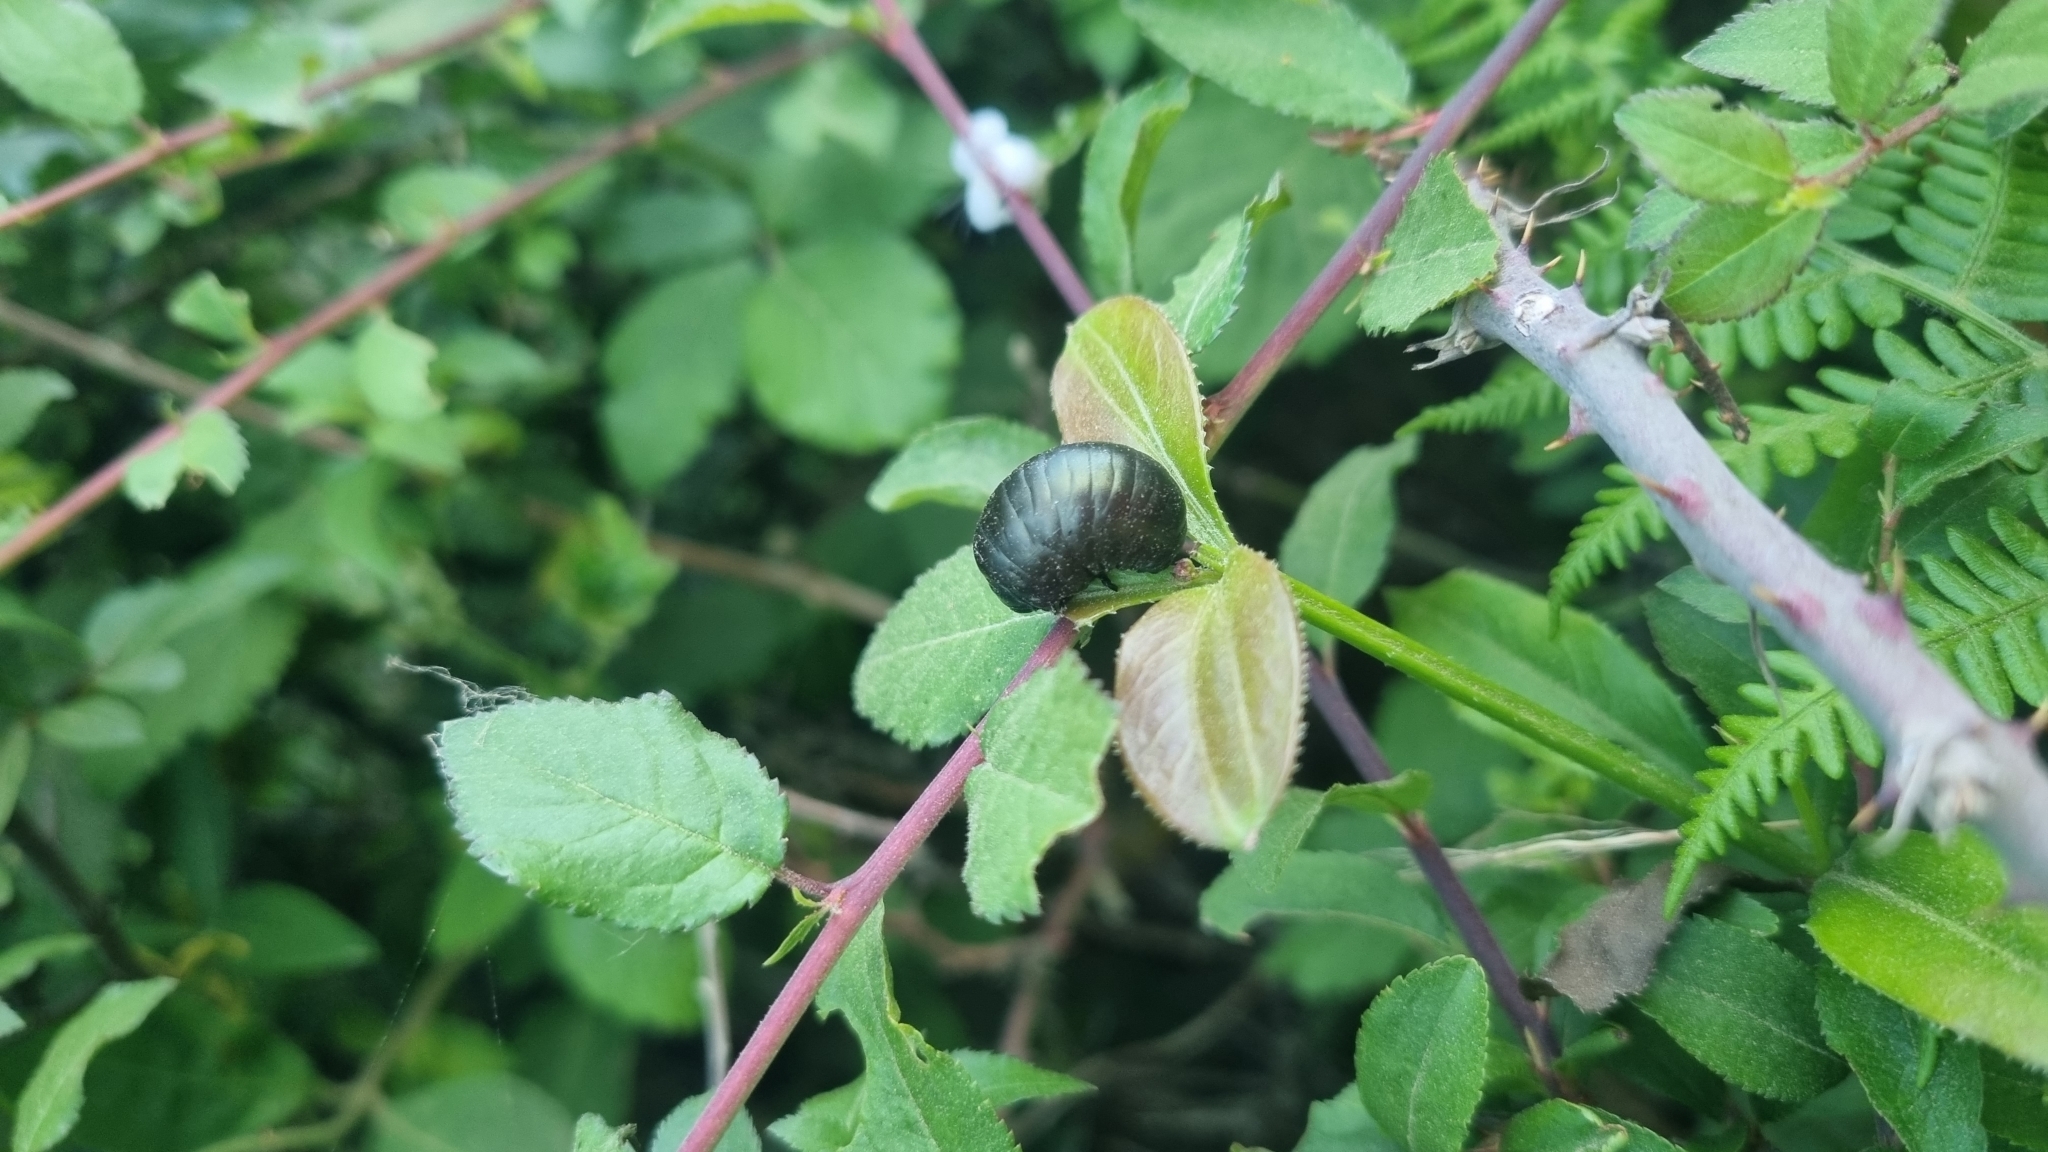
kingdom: Animalia
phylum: Arthropoda
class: Insecta
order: Coleoptera
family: Chrysomelidae
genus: Timarcha
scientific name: Timarcha tenebricosa
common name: Bloody-nosed beetle
